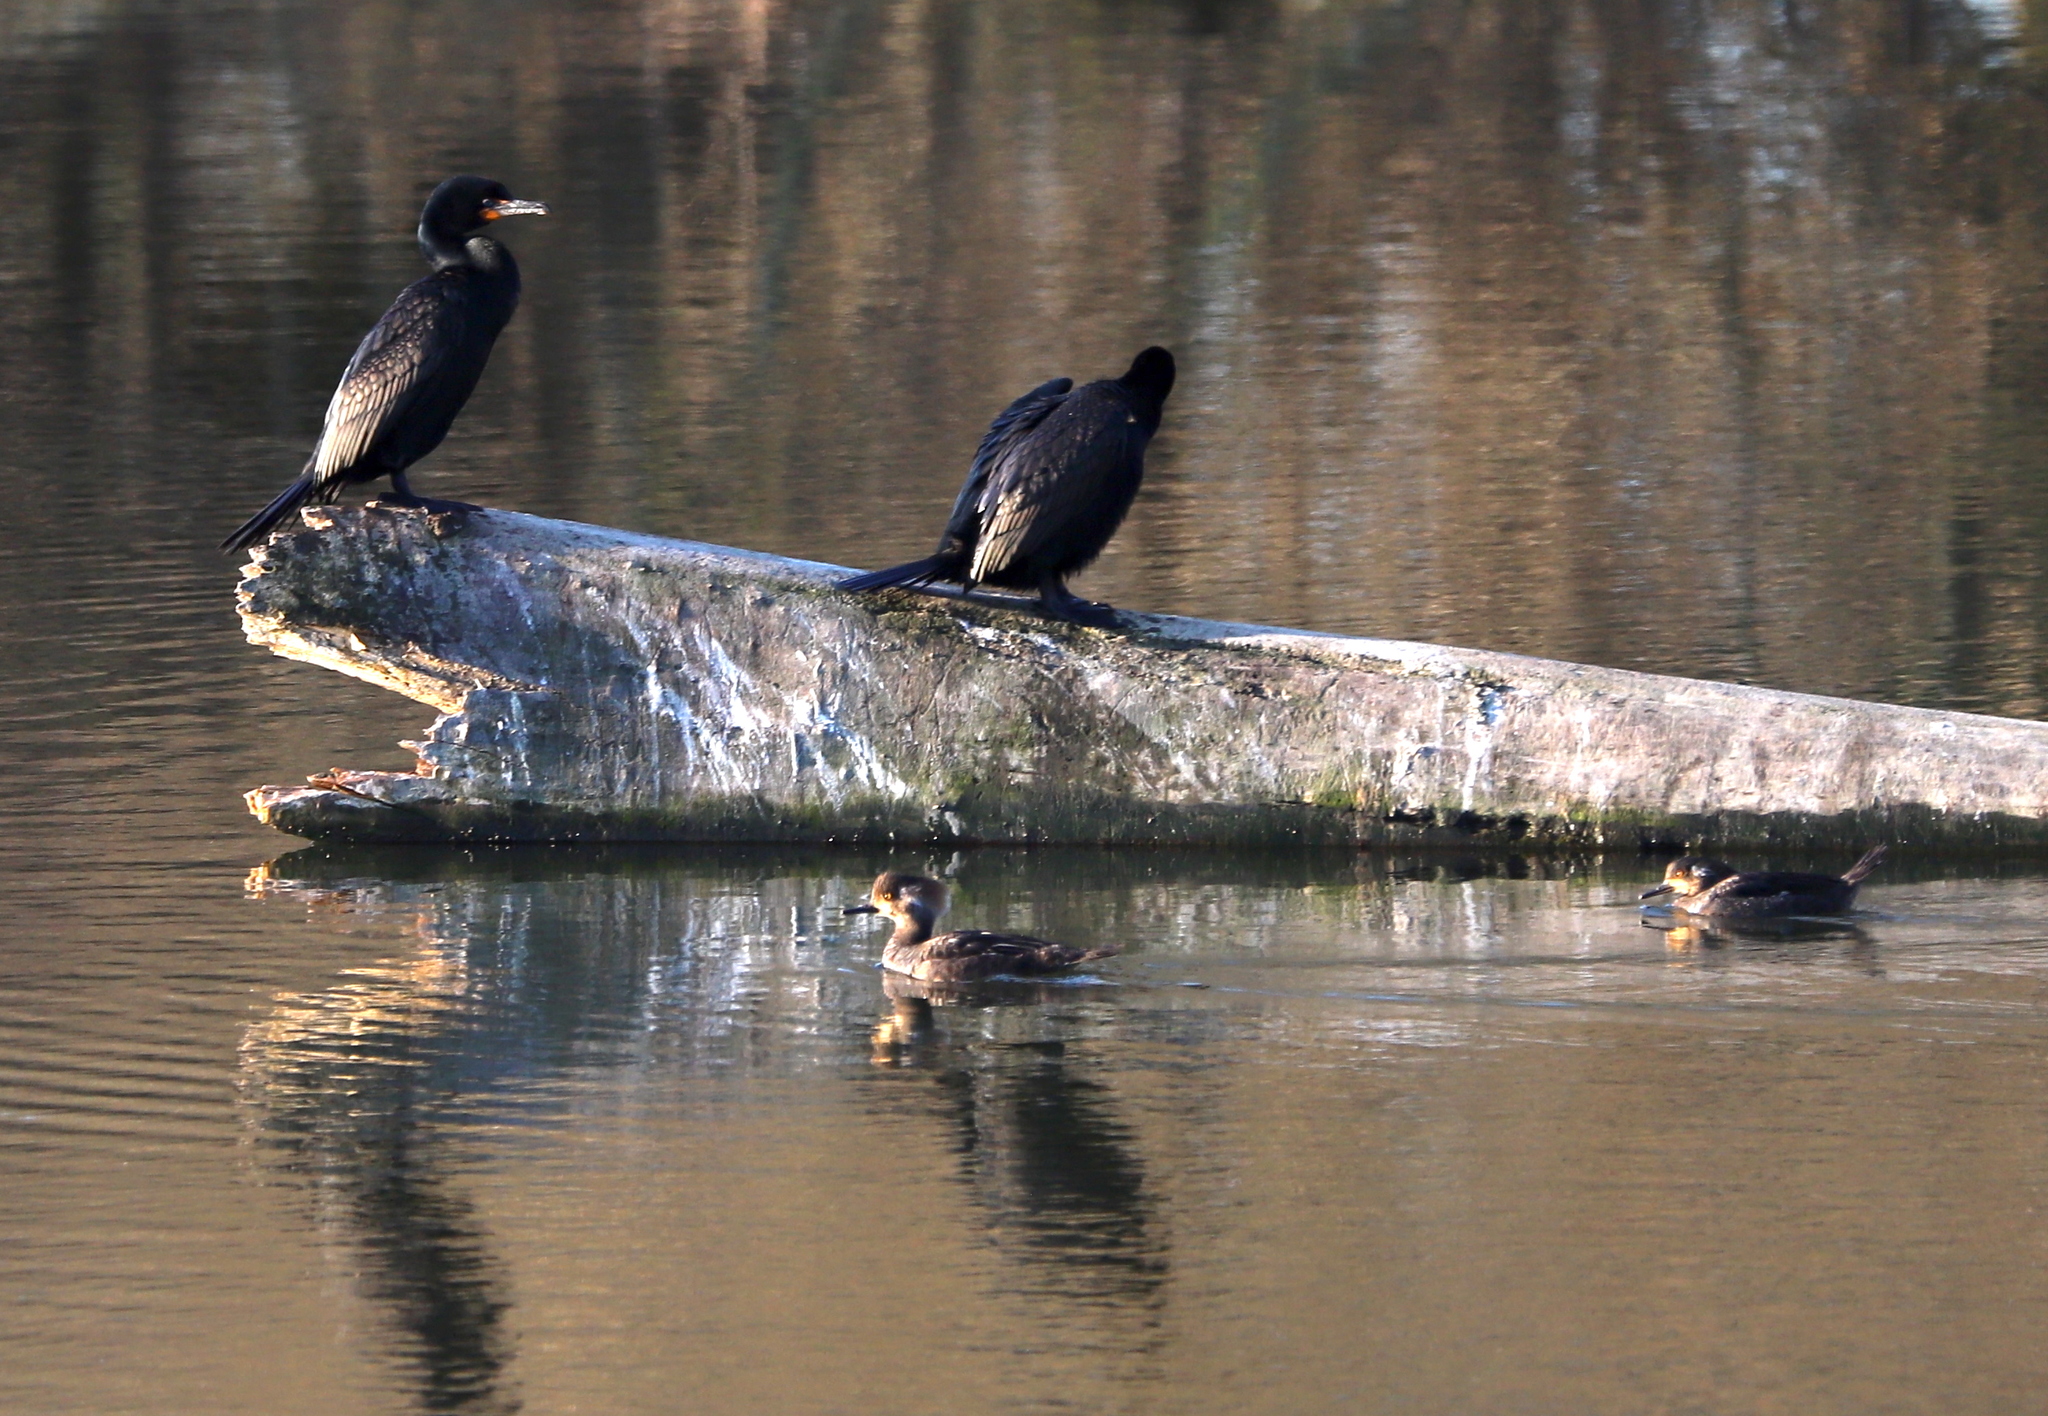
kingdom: Animalia
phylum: Chordata
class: Aves
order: Anseriformes
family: Anatidae
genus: Lophodytes
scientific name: Lophodytes cucullatus
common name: Hooded merganser
